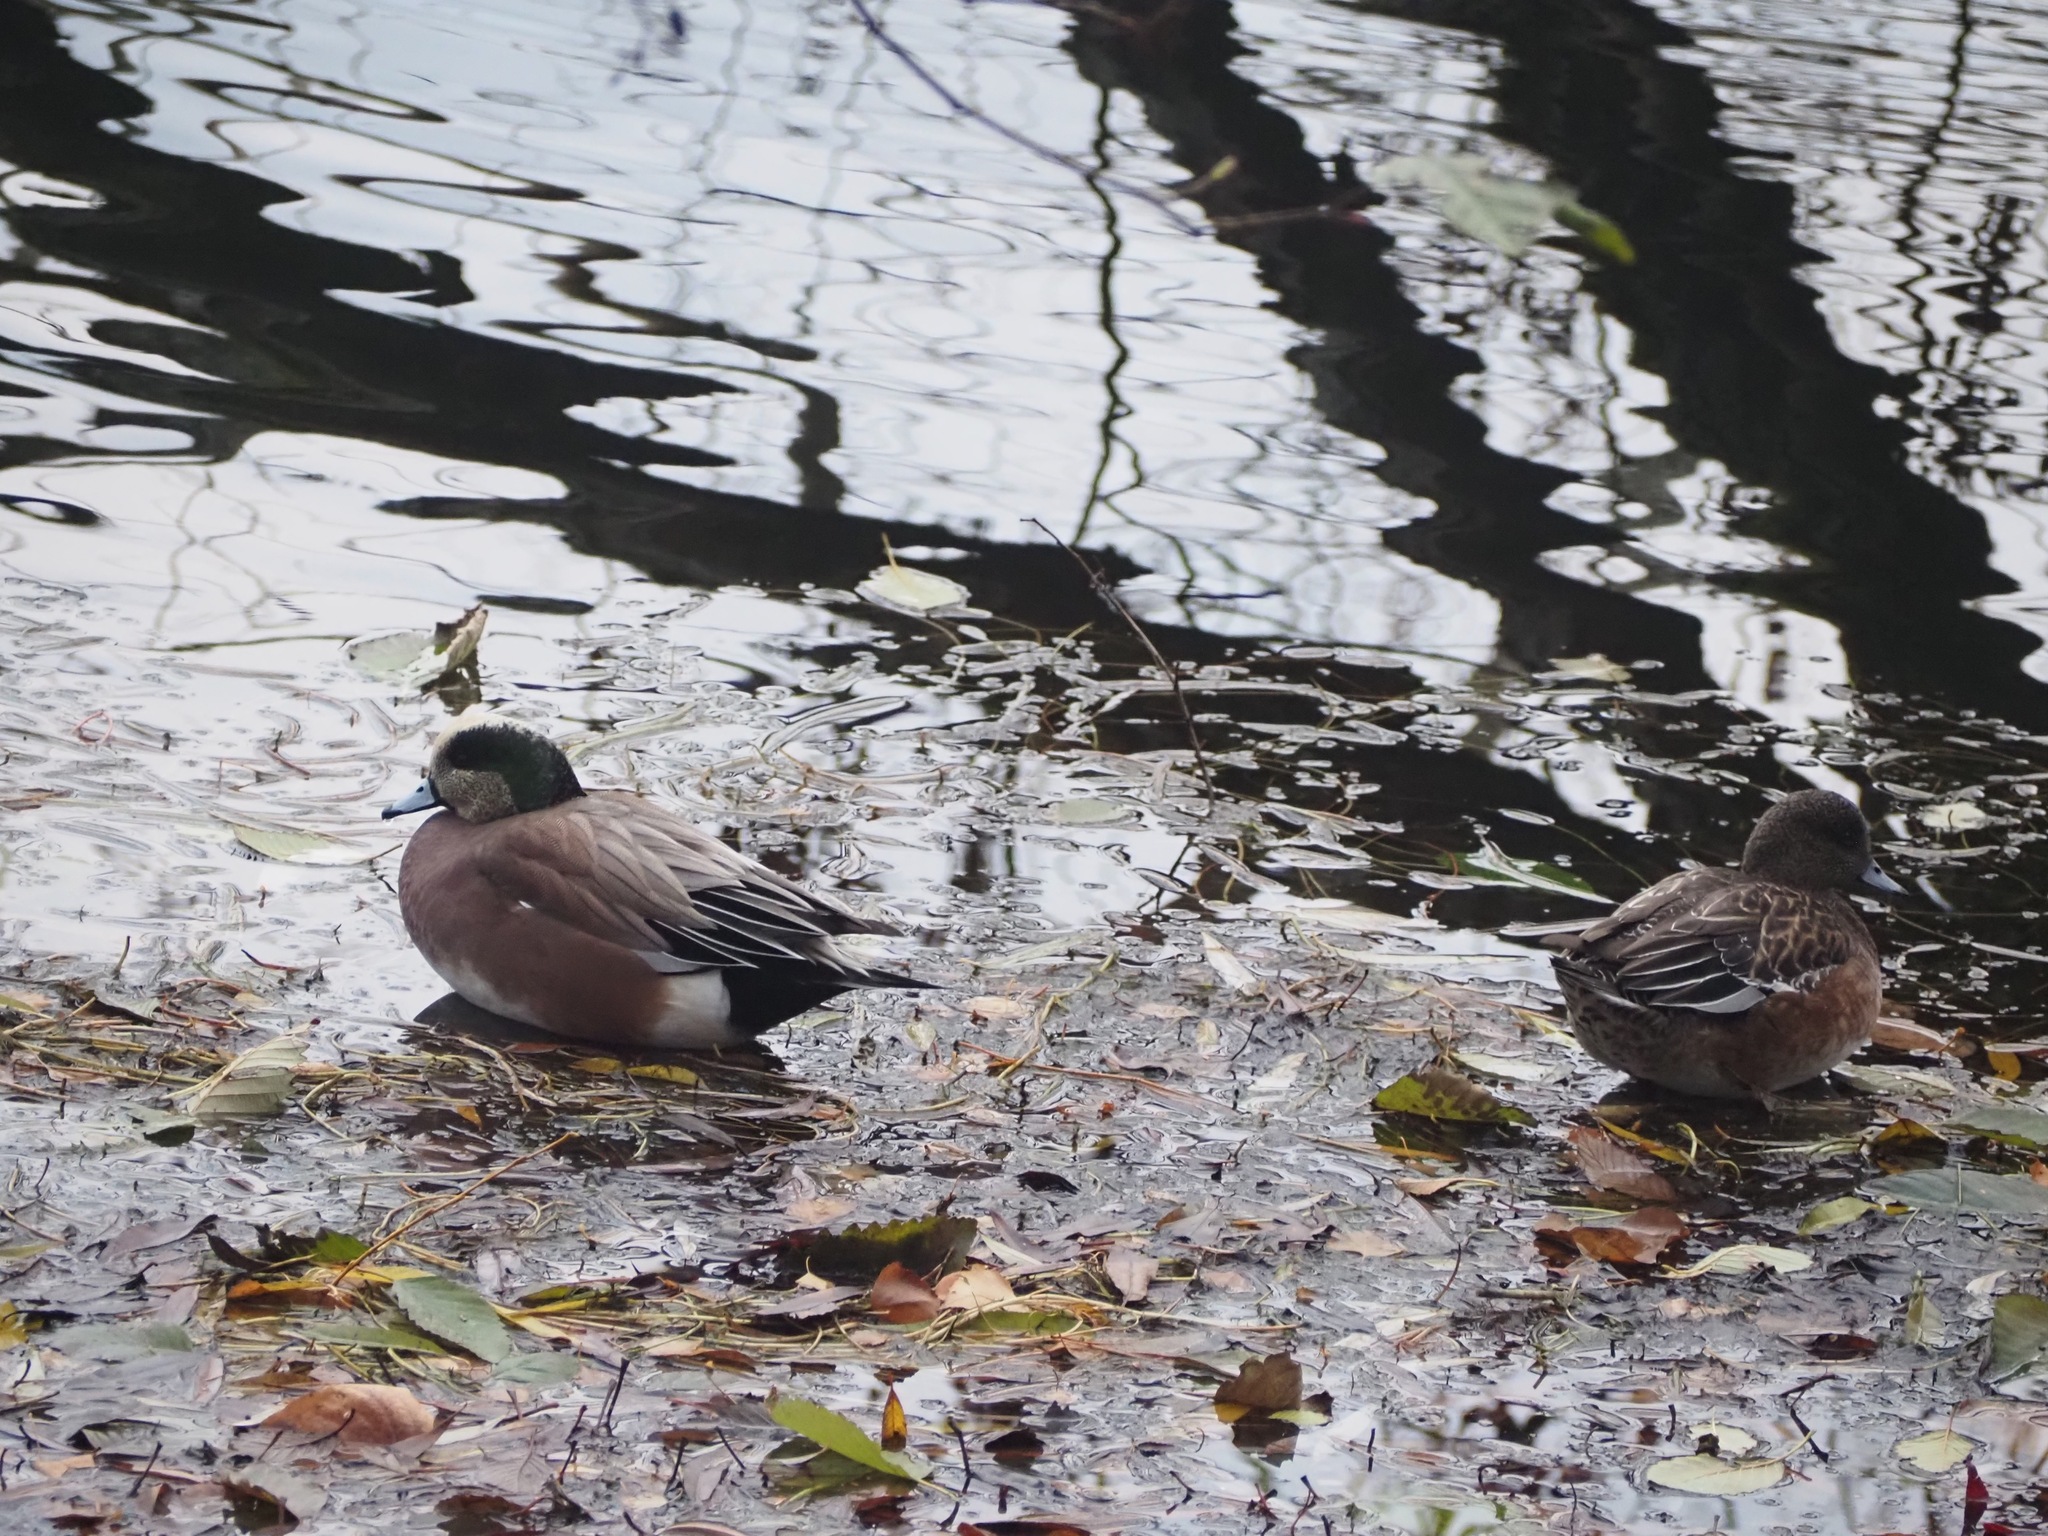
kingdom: Animalia
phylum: Chordata
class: Aves
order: Anseriformes
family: Anatidae
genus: Mareca
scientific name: Mareca americana
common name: American wigeon
